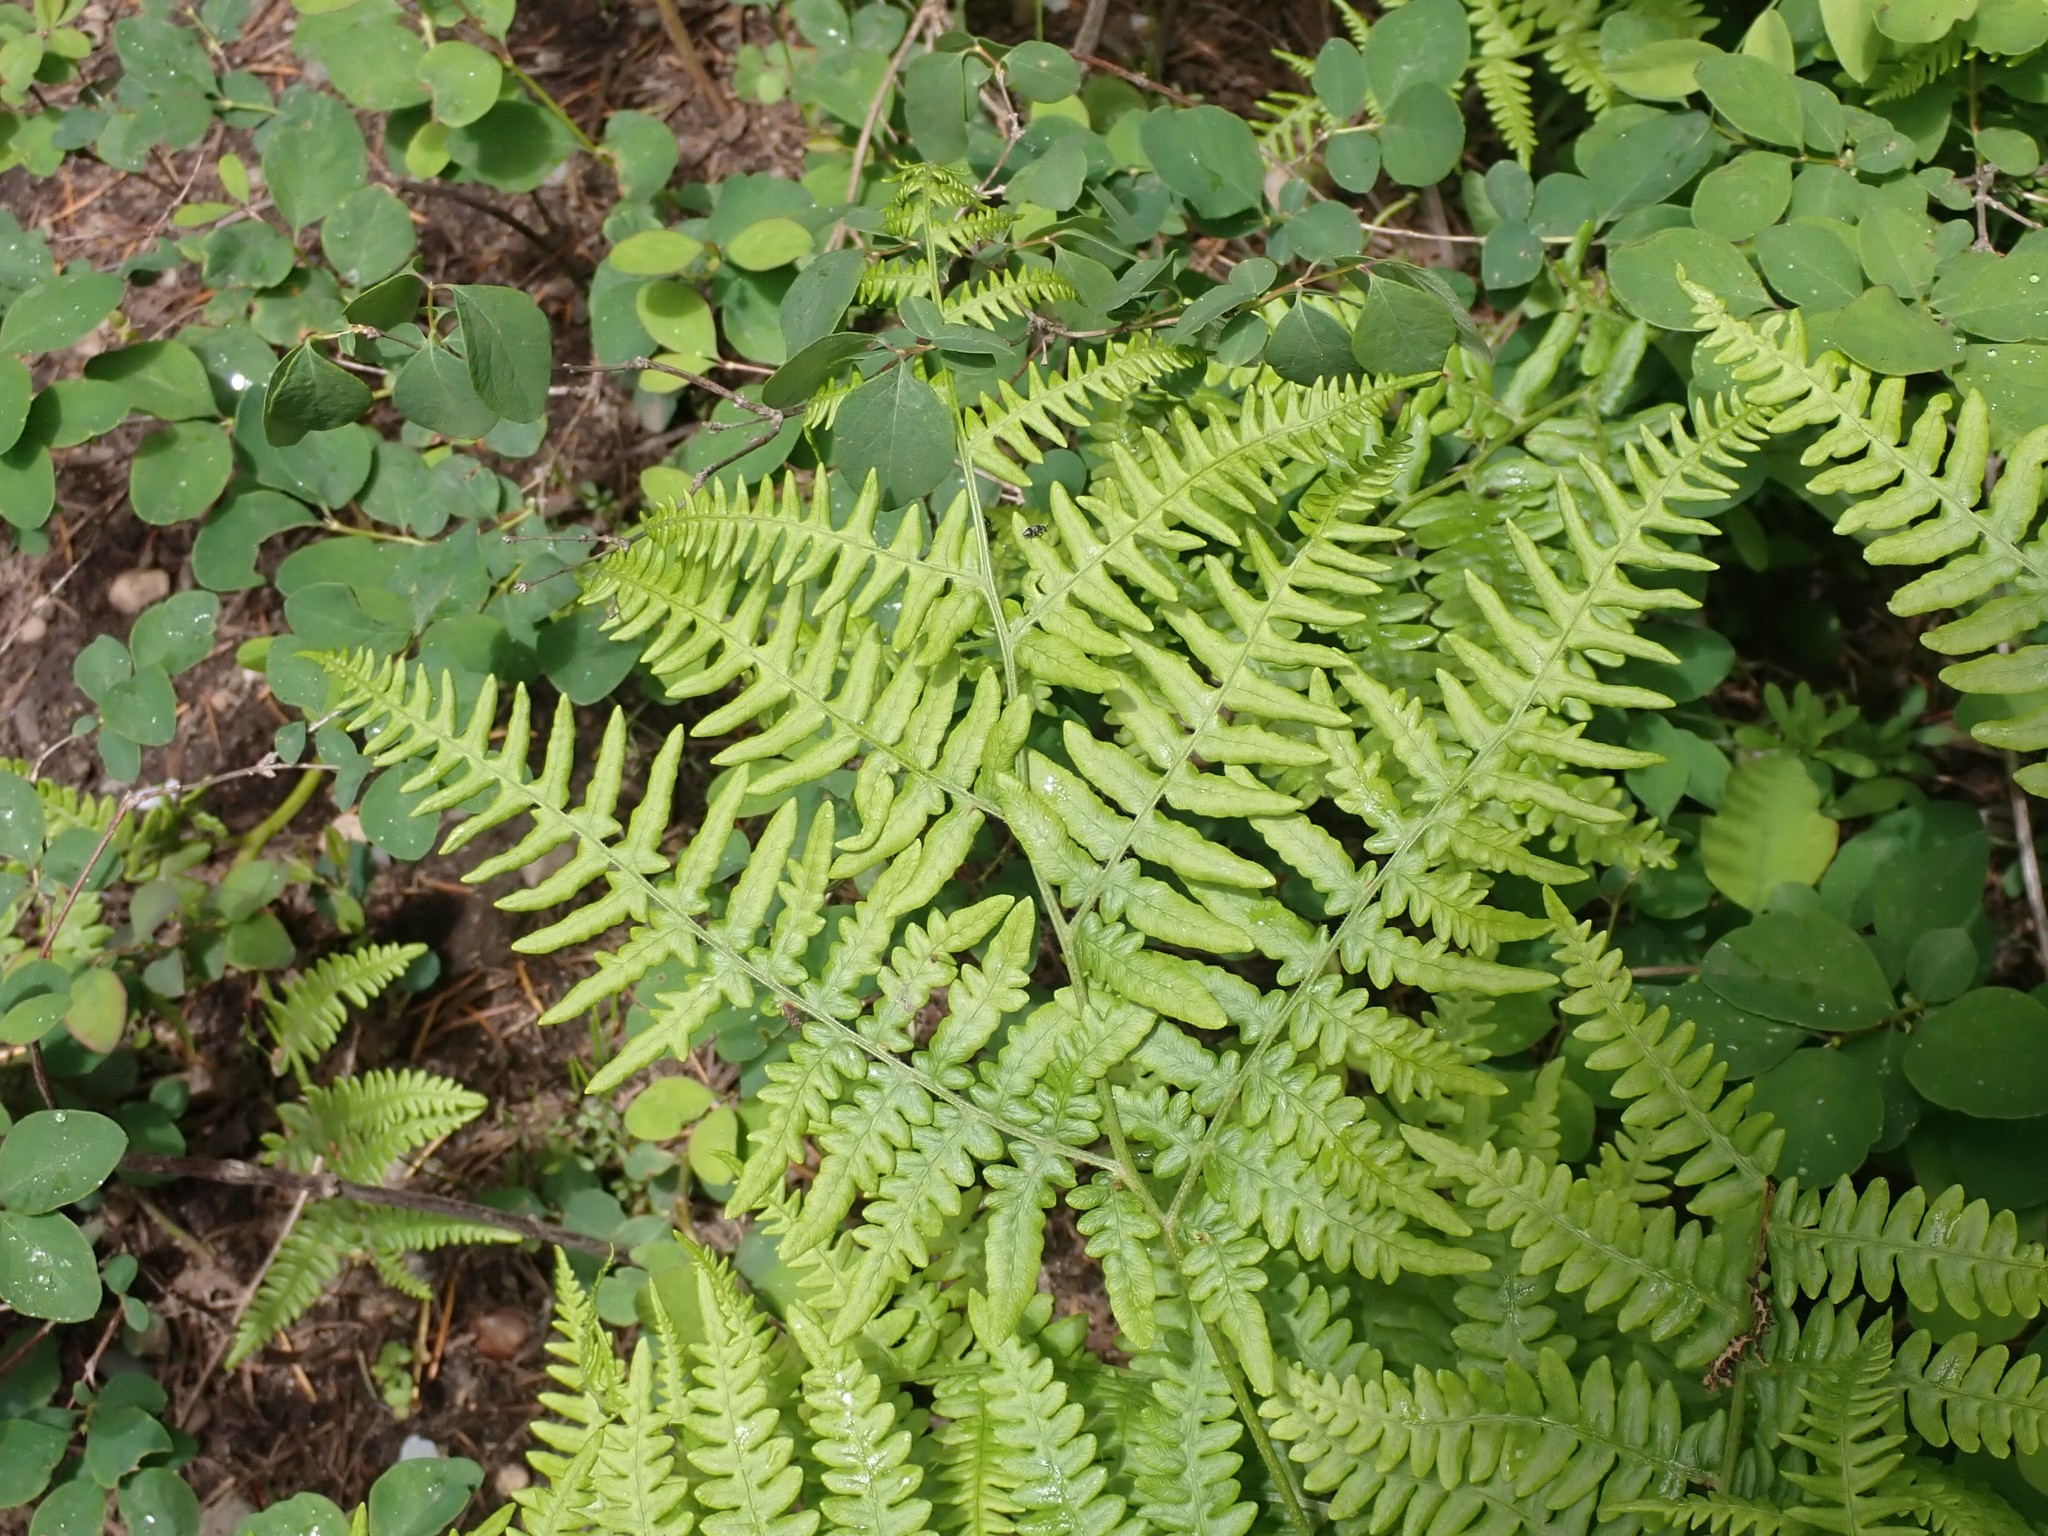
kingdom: Plantae
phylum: Tracheophyta
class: Polypodiopsida
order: Polypodiales
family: Dennstaedtiaceae
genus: Pteridium
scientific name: Pteridium aquilinum
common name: Bracken
